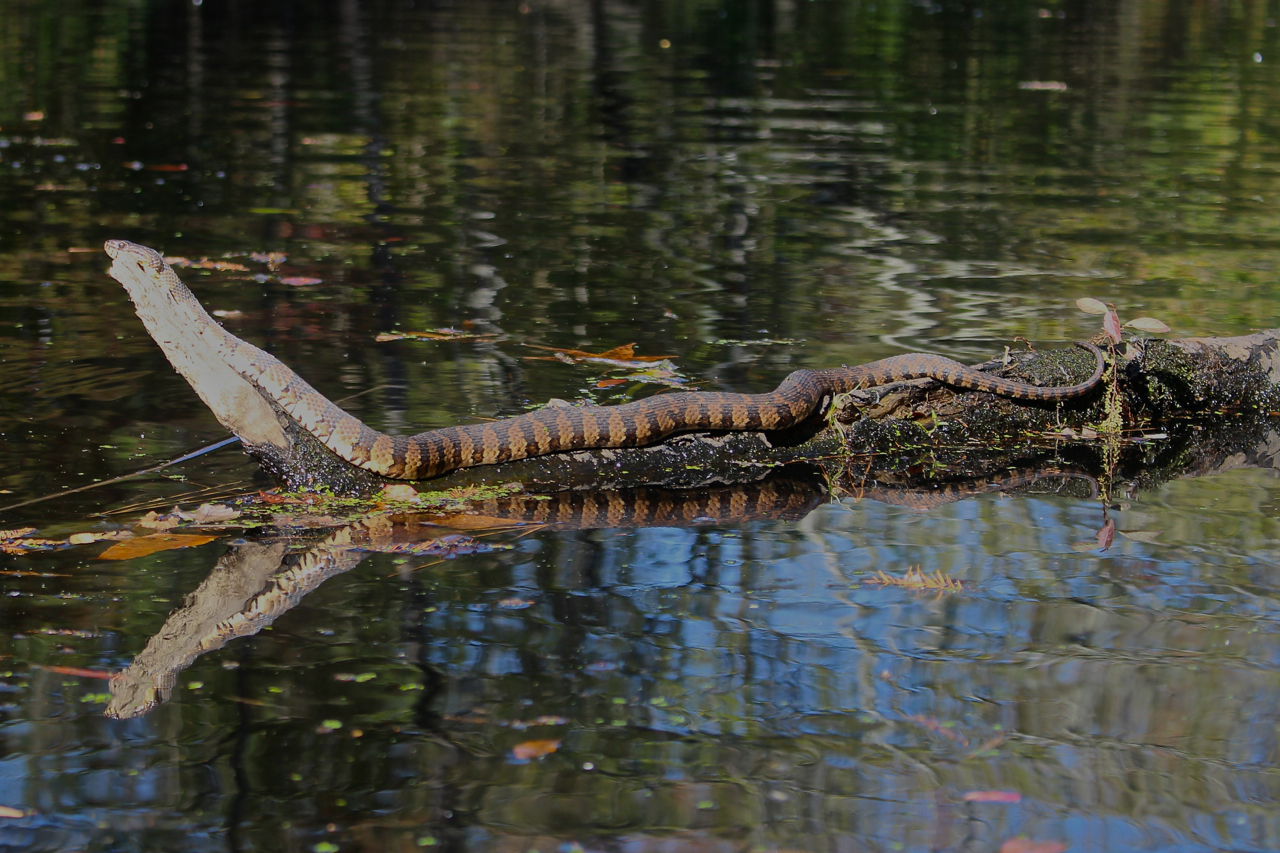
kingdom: Animalia
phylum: Chordata
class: Squamata
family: Colubridae
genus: Nerodia
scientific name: Nerodia sipedon
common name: Northern water snake
